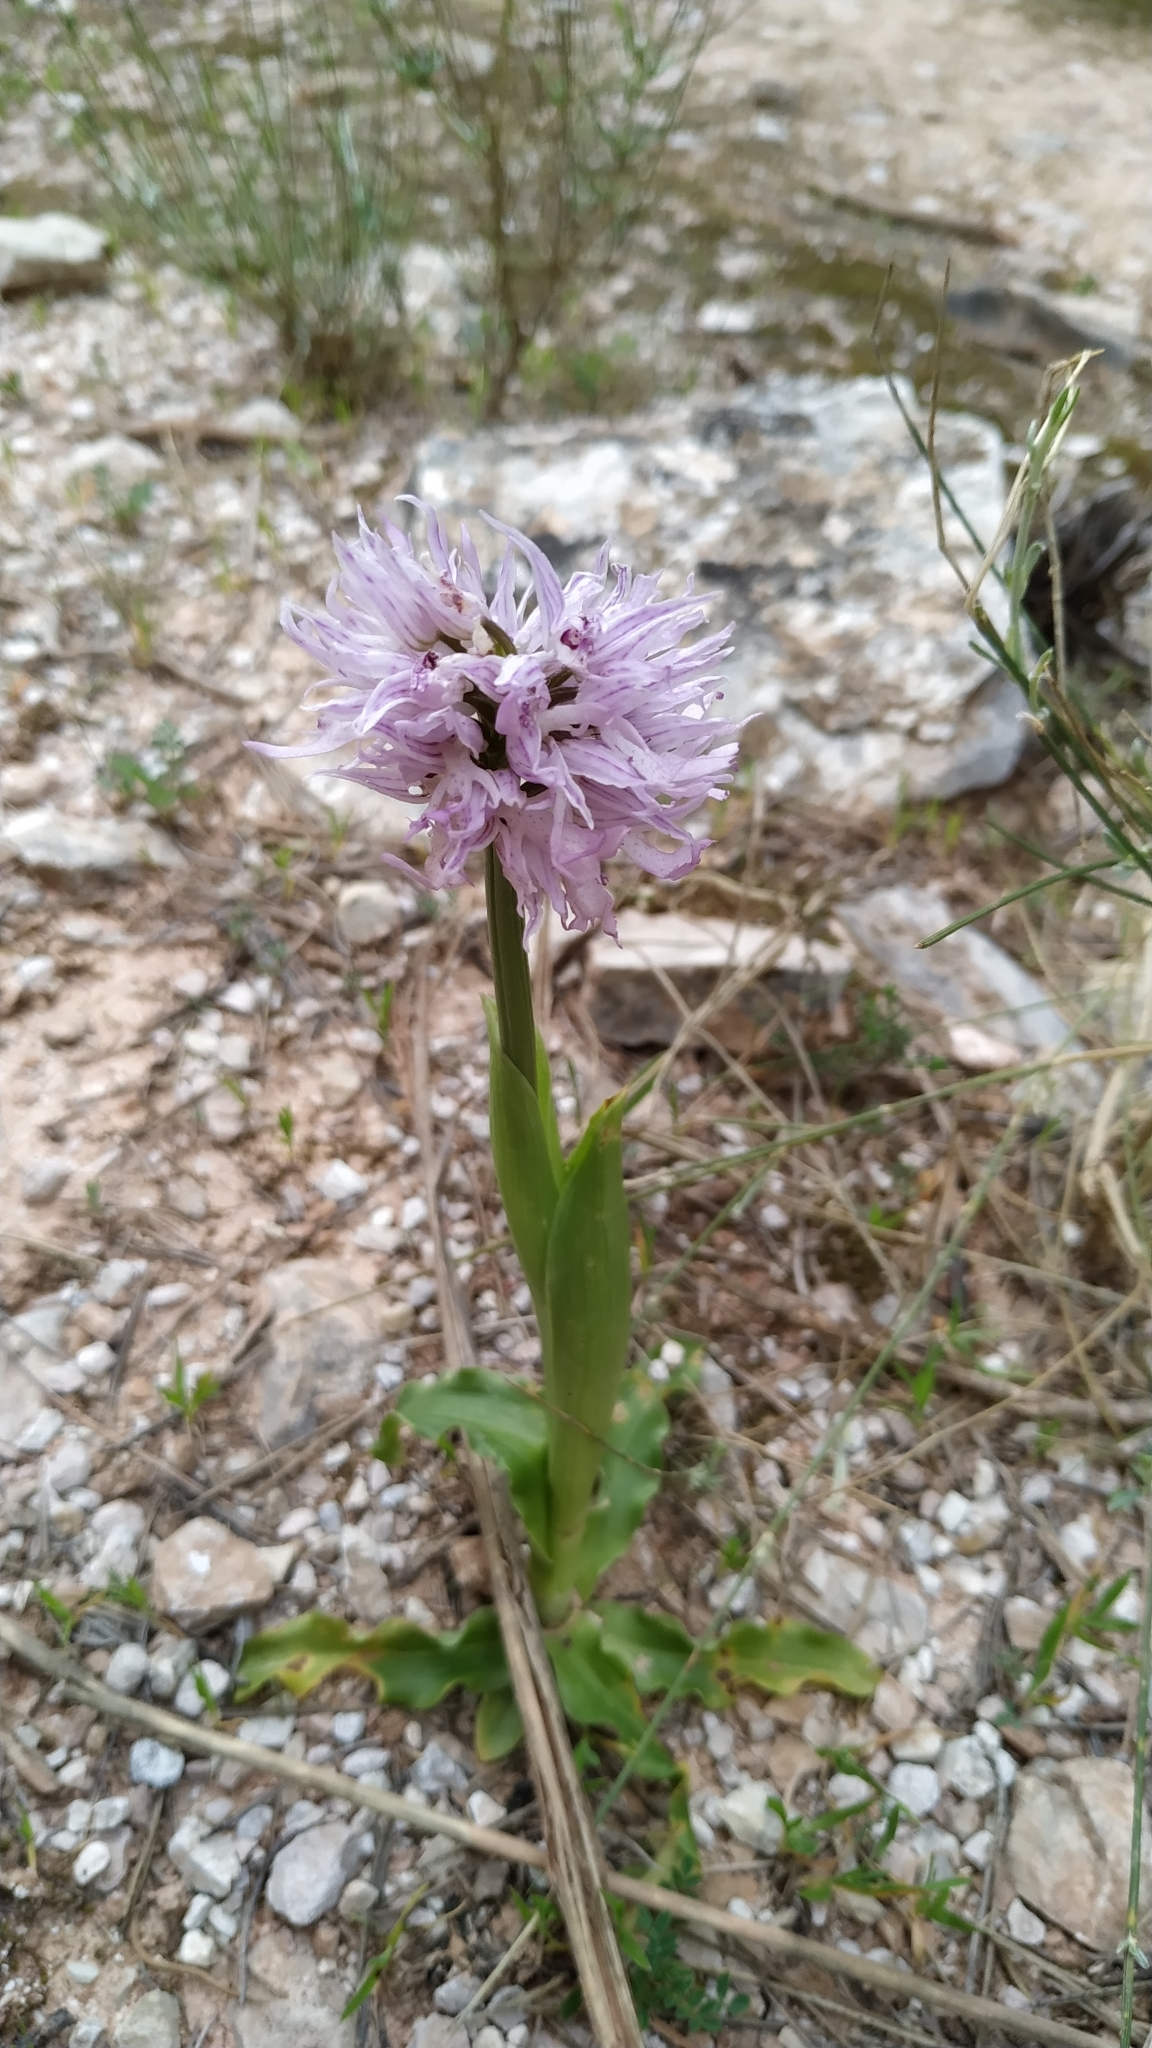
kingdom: Plantae
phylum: Tracheophyta
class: Liliopsida
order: Asparagales
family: Orchidaceae
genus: Orchis
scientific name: Orchis italica
